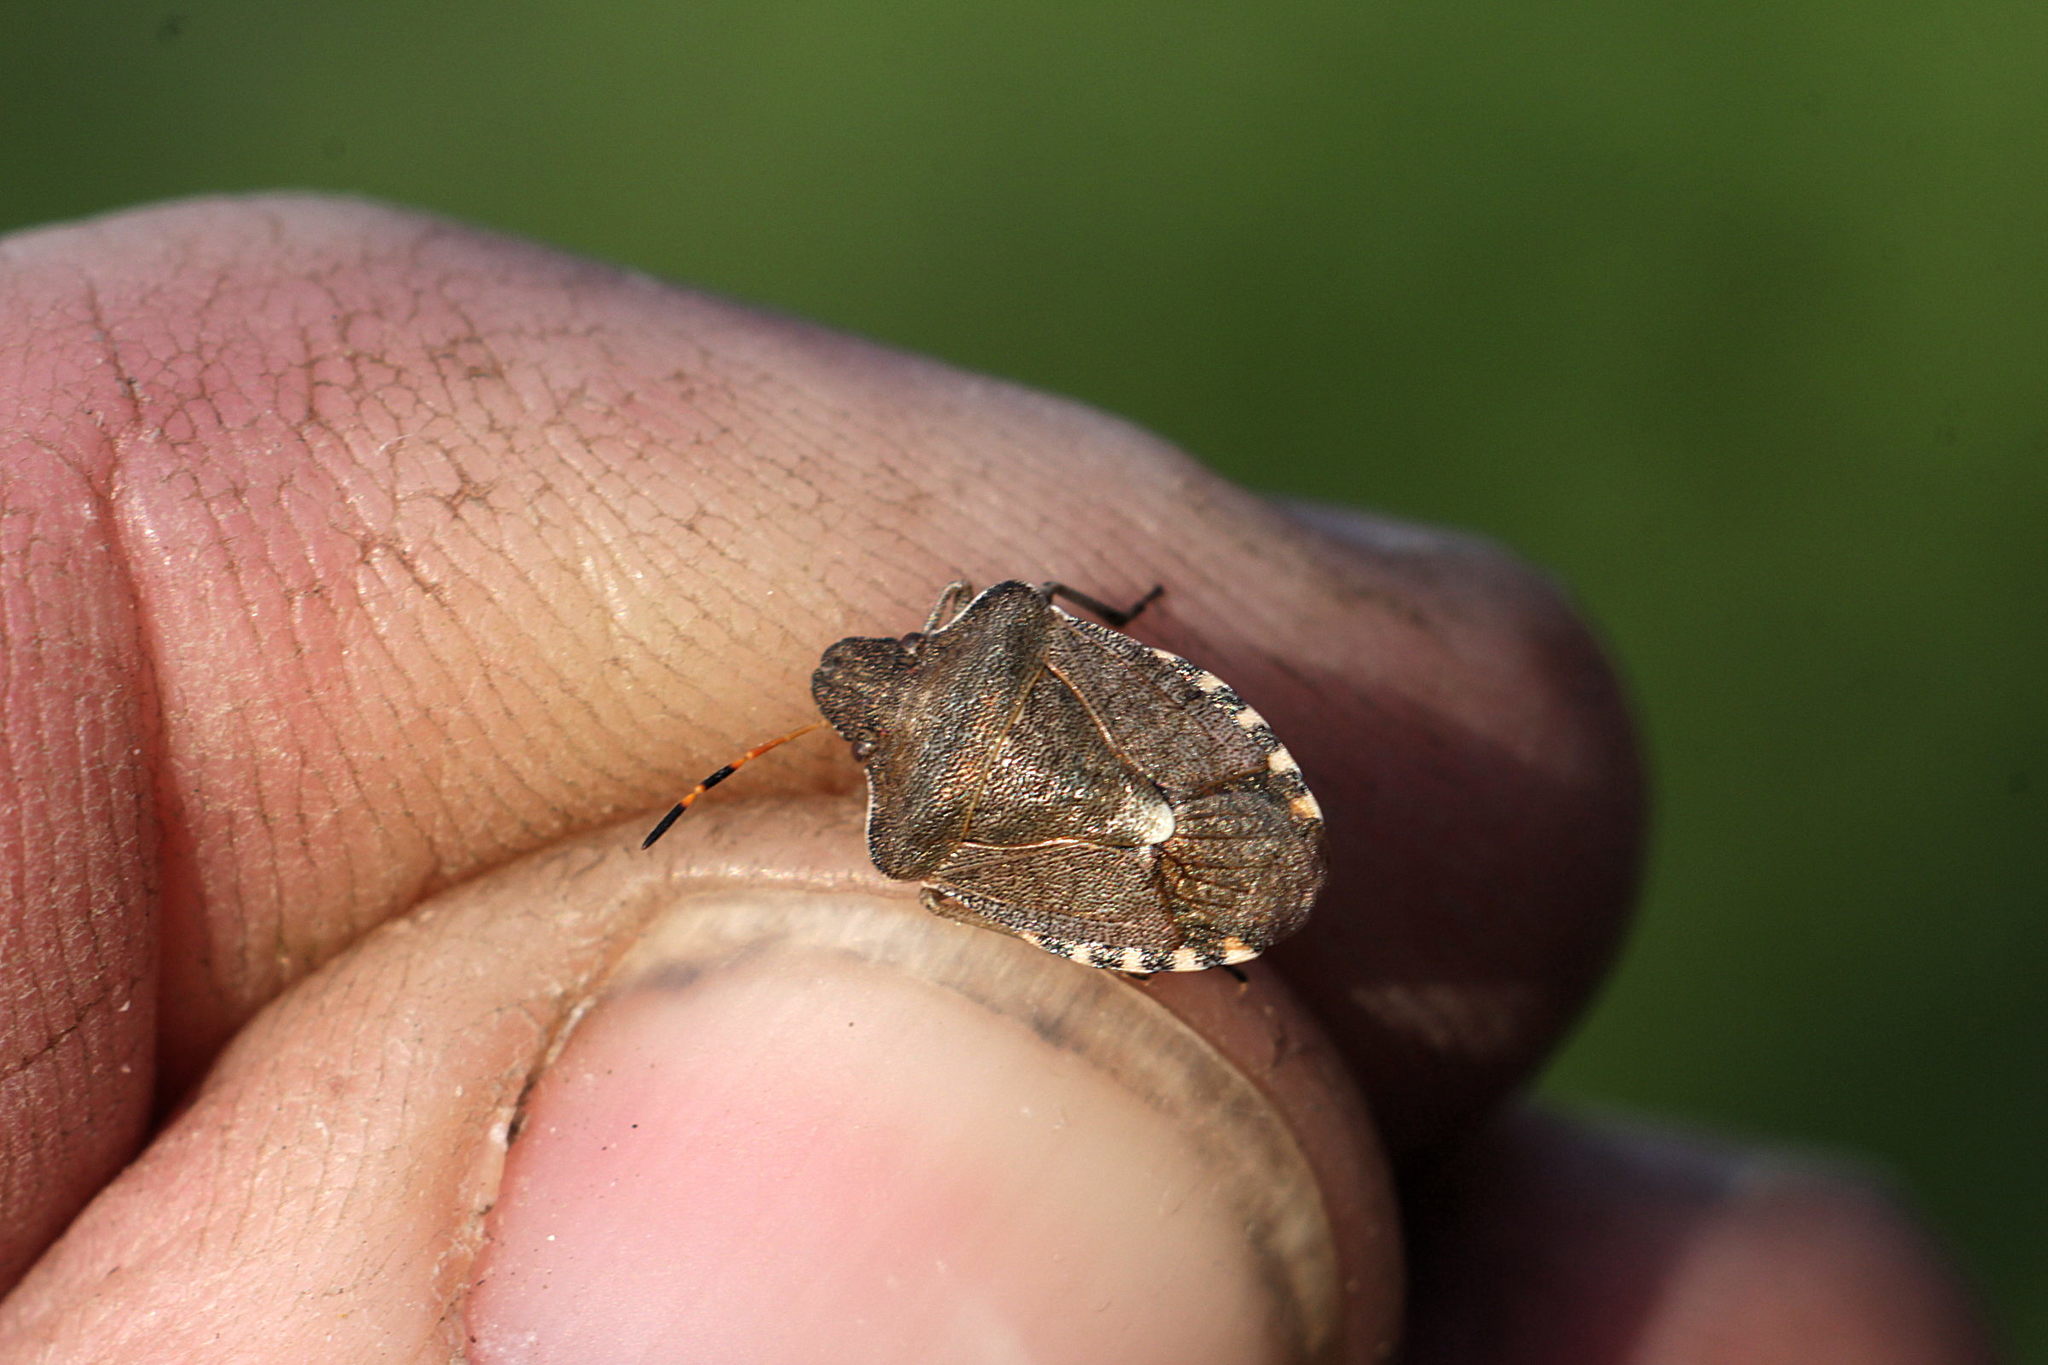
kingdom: Animalia
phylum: Arthropoda
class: Insecta
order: Hemiptera
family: Pentatomidae
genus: Holcostethus
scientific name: Holcostethus strictus
